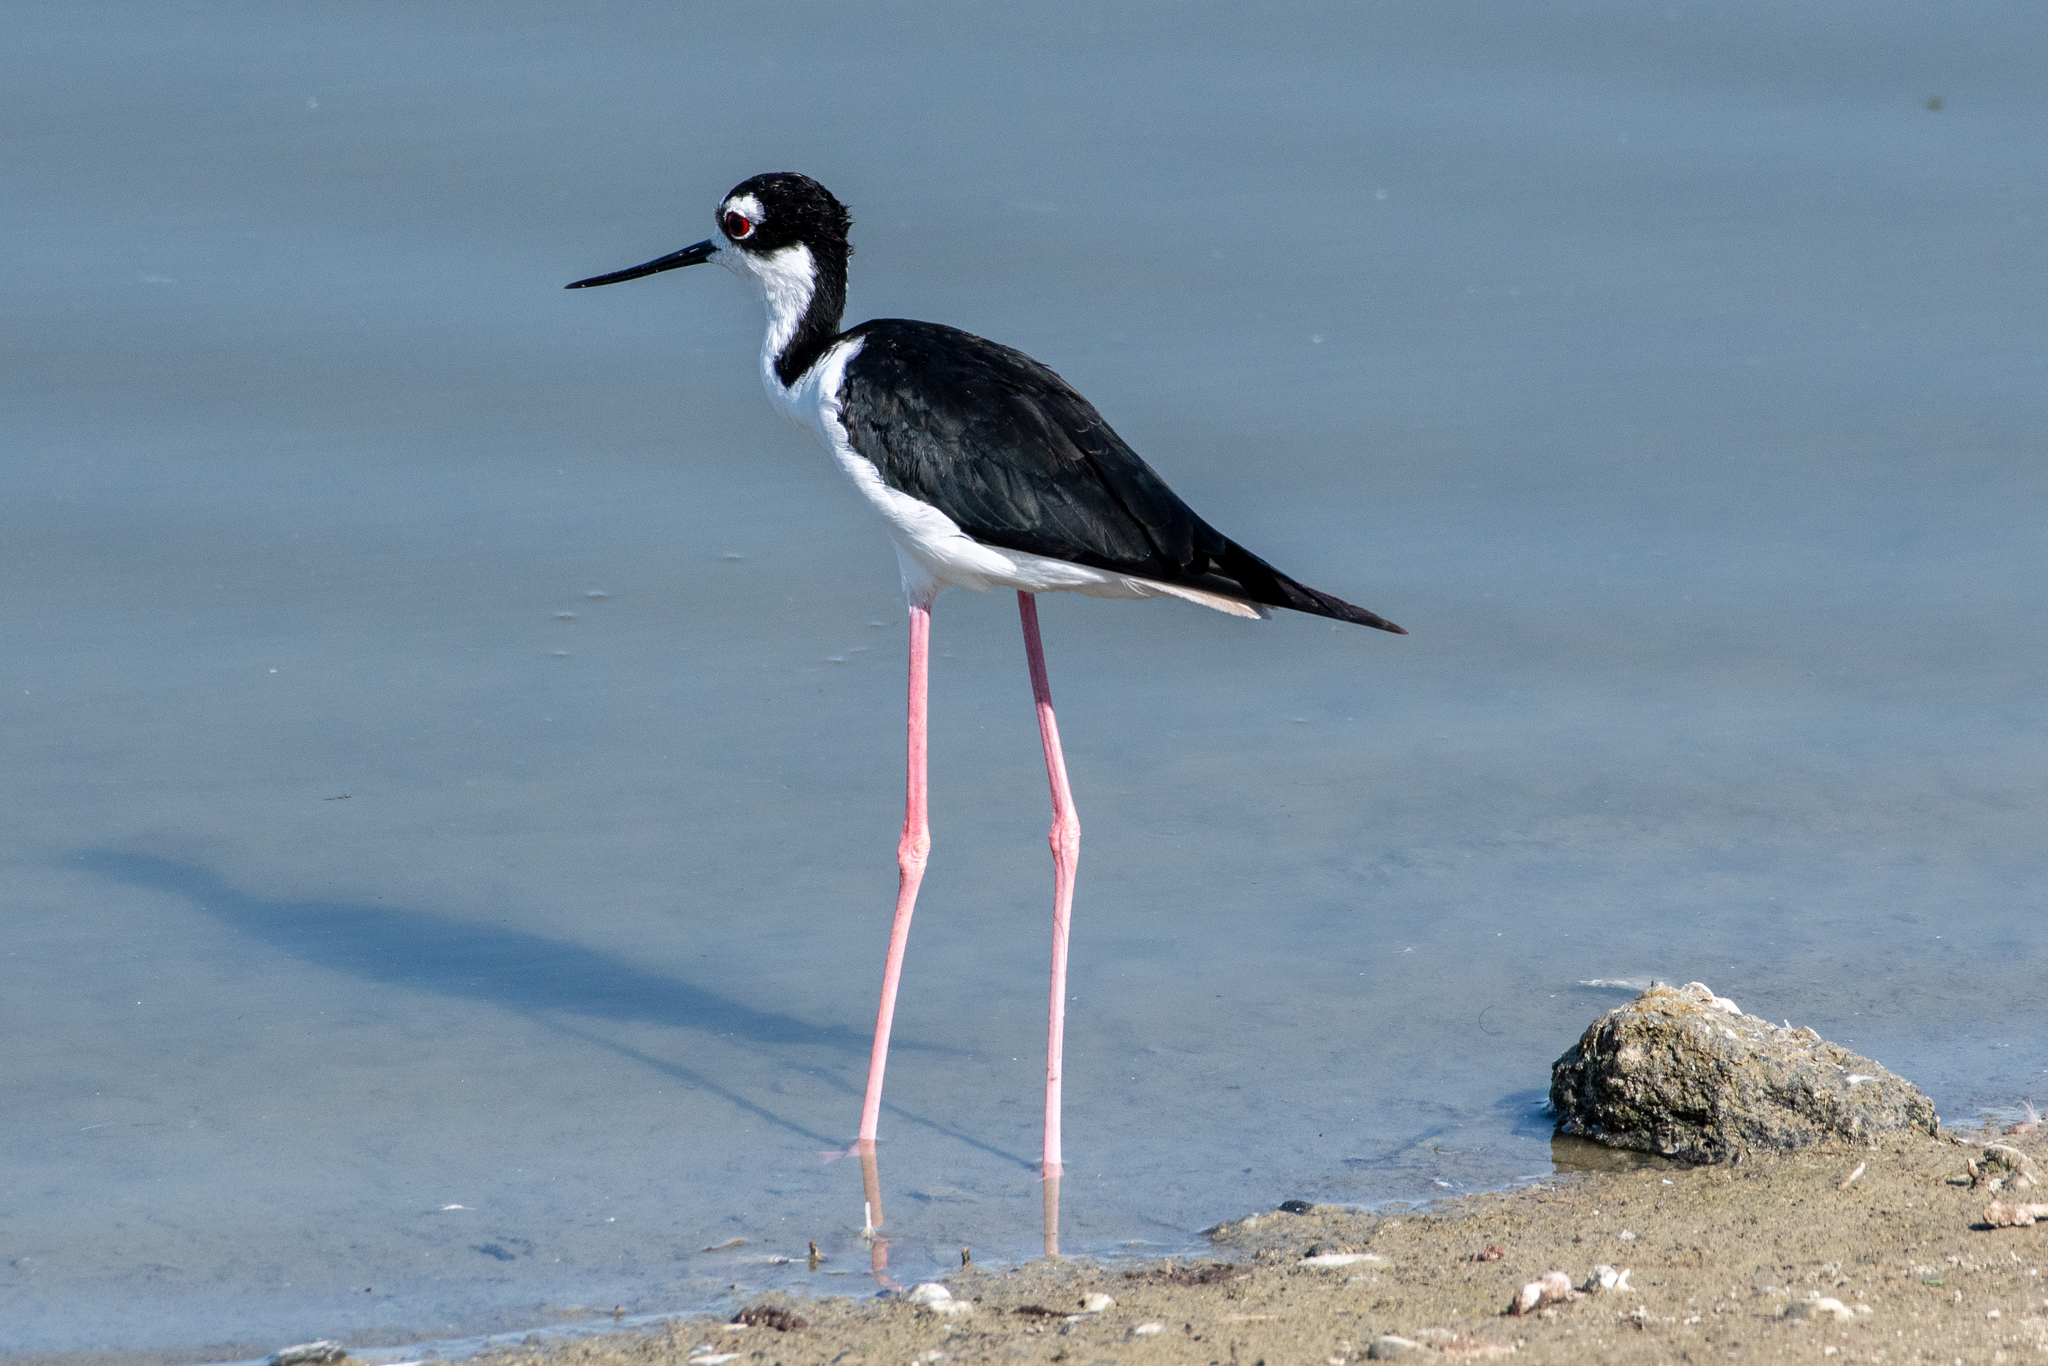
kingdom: Animalia
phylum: Chordata
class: Aves
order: Charadriiformes
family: Recurvirostridae
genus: Himantopus
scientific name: Himantopus mexicanus
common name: Black-necked stilt
